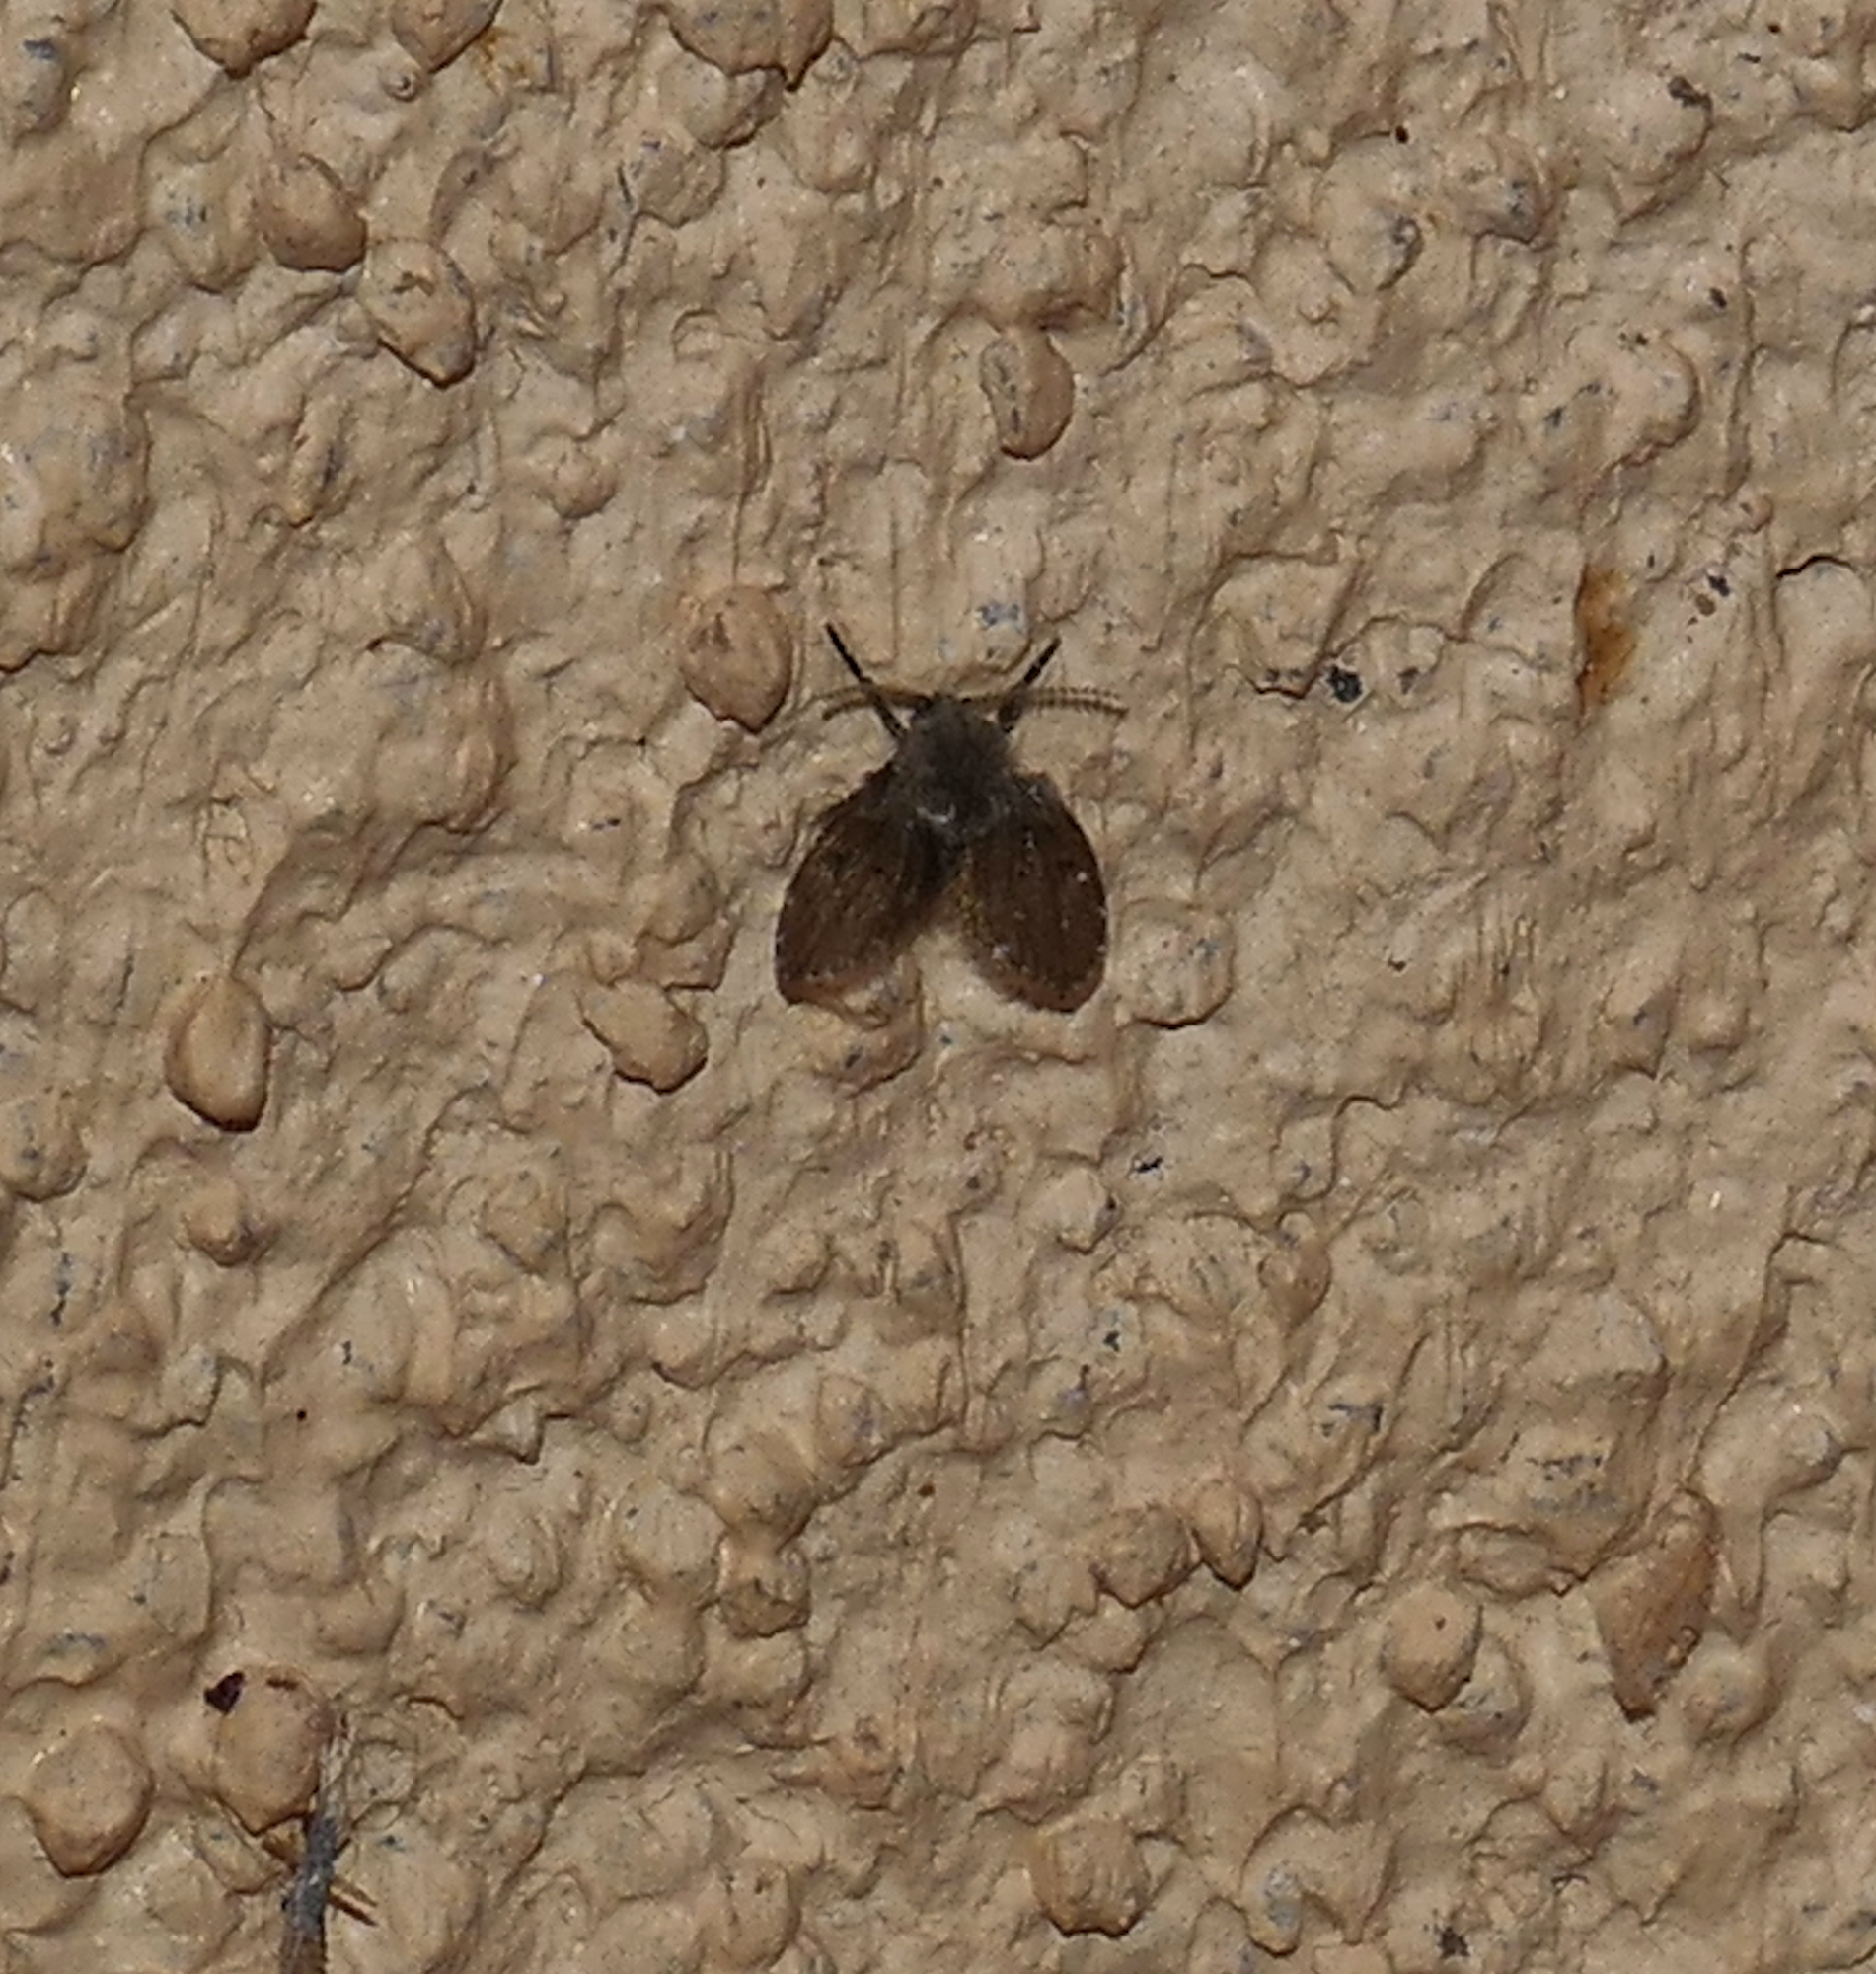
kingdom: Animalia
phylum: Arthropoda
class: Insecta
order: Diptera
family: Psychodidae
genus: Clogmia
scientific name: Clogmia albipunctatus
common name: White-spotted moth fly
